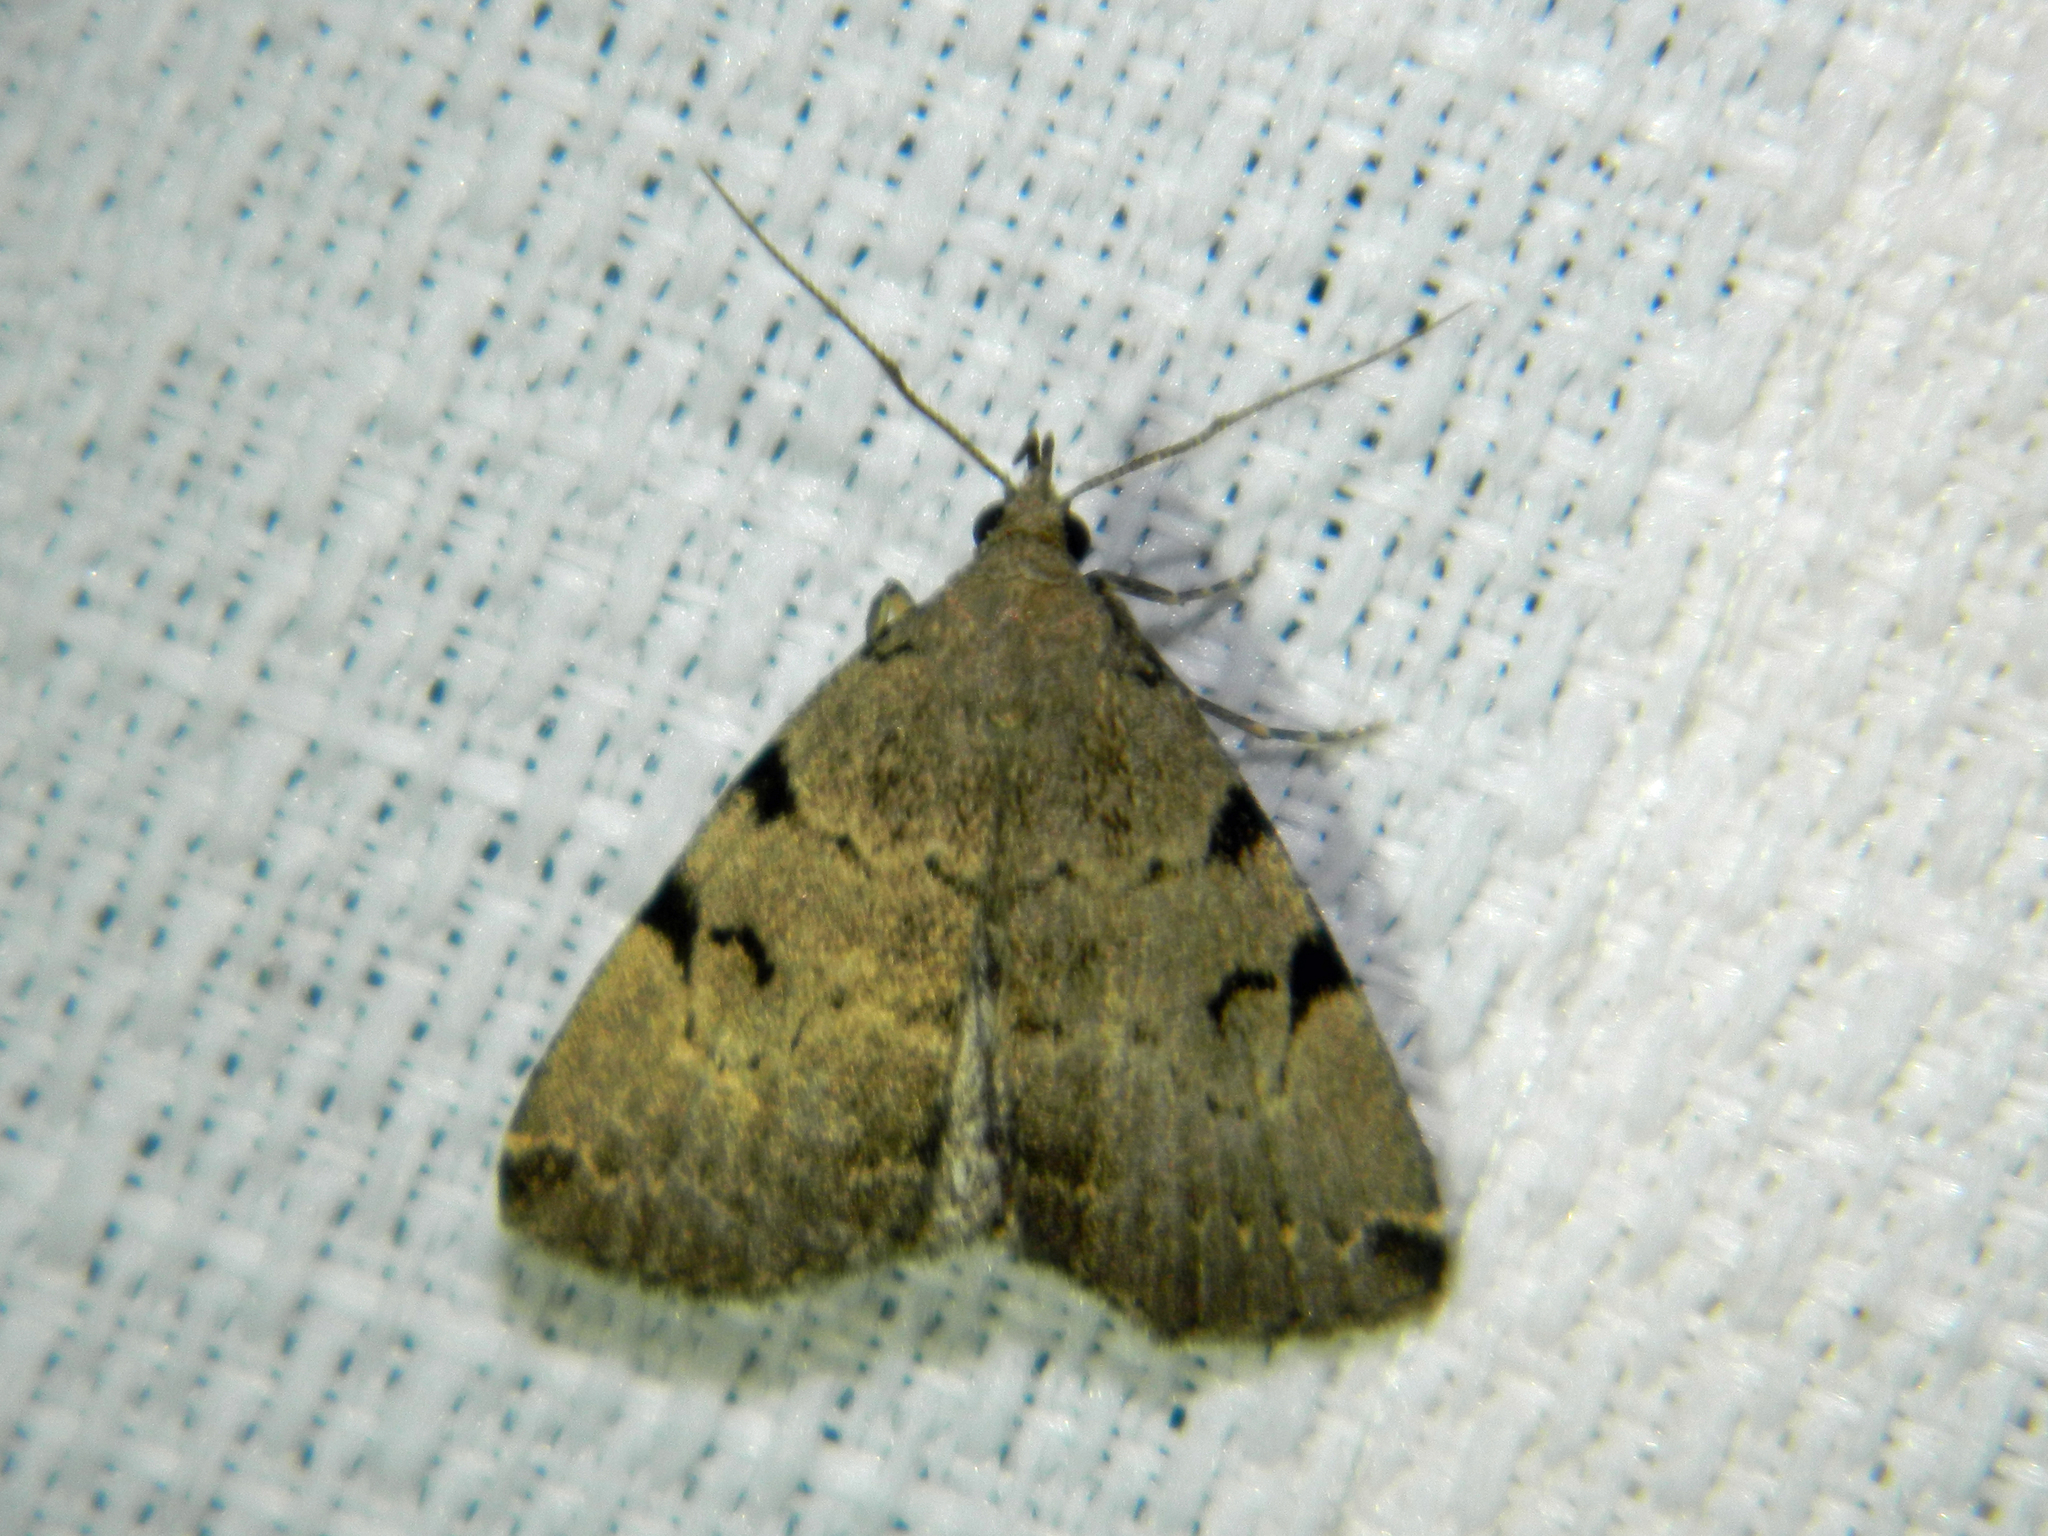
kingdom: Animalia
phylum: Arthropoda
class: Insecta
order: Lepidoptera
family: Erebidae
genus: Zanclognatha
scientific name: Zanclognatha lituralis
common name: Lettered fan-foot
